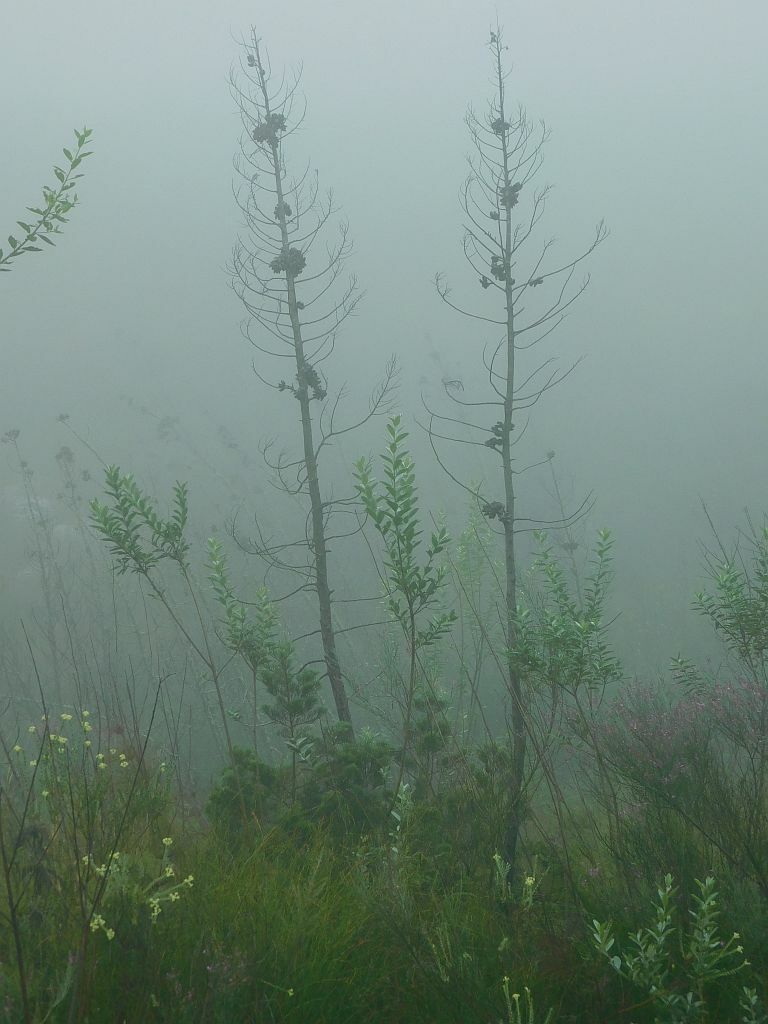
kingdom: Plantae
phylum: Tracheophyta
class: Pinopsida
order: Pinales
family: Cupressaceae
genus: Widdringtonia
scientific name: Widdringtonia nodiflora
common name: Cape cypress
